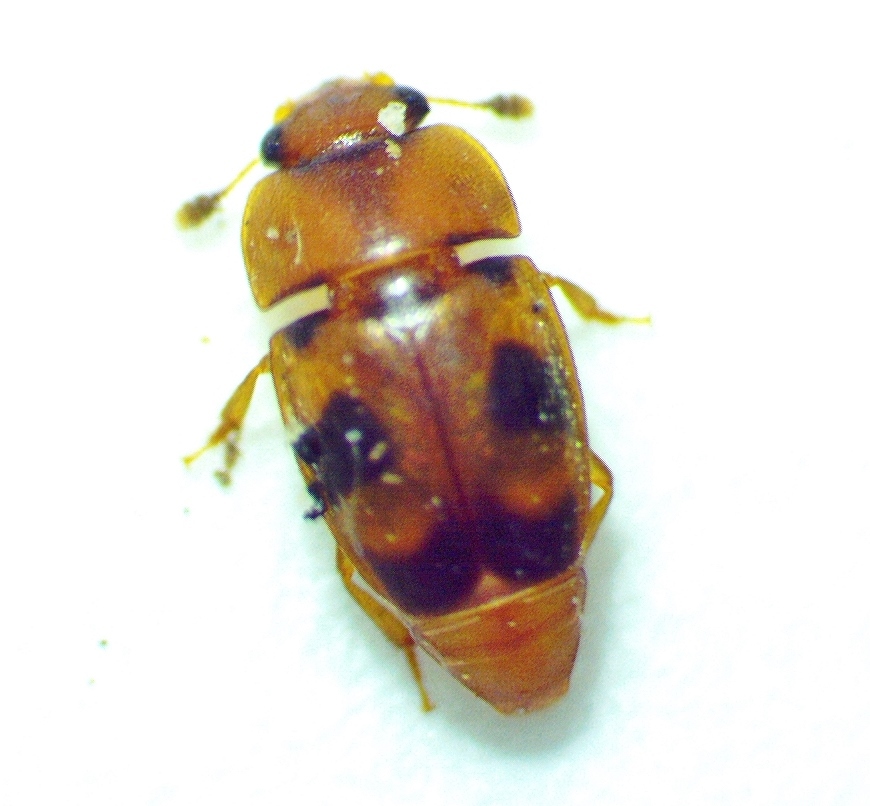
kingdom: Animalia
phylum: Arthropoda
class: Insecta
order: Coleoptera
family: Nitidulidae
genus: Epuraea
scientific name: Epuraea ocularis
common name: Sap beetle
